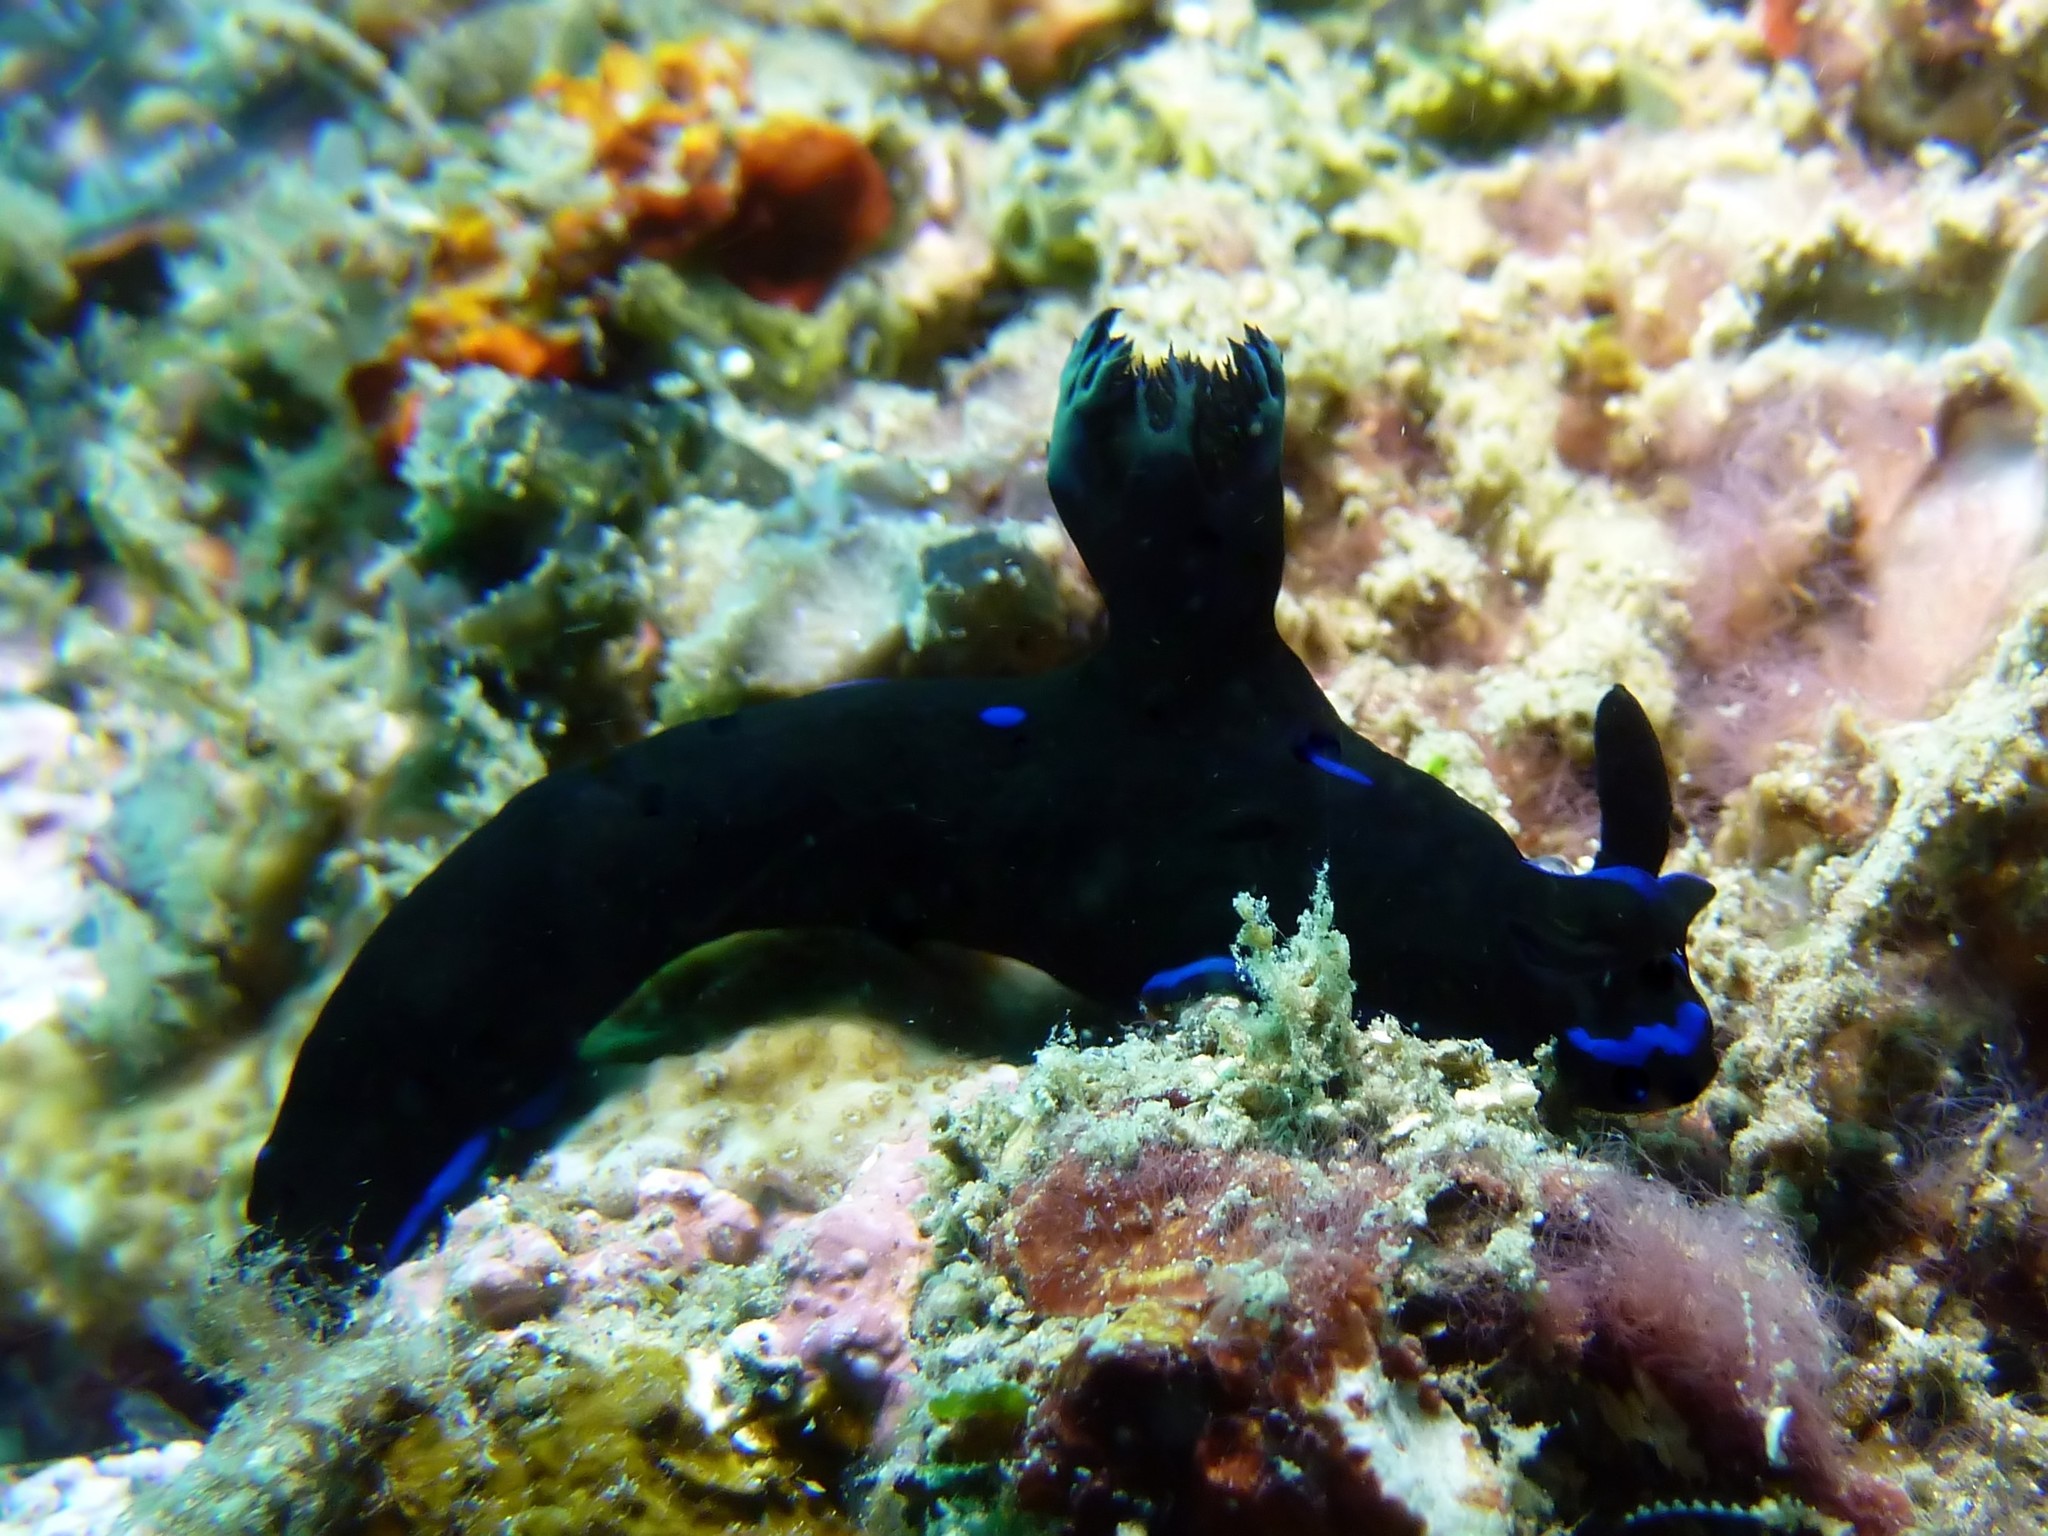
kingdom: Animalia
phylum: Mollusca
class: Gastropoda
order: Nudibranchia
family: Polyceridae
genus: Tambja
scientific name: Tambja morosa
